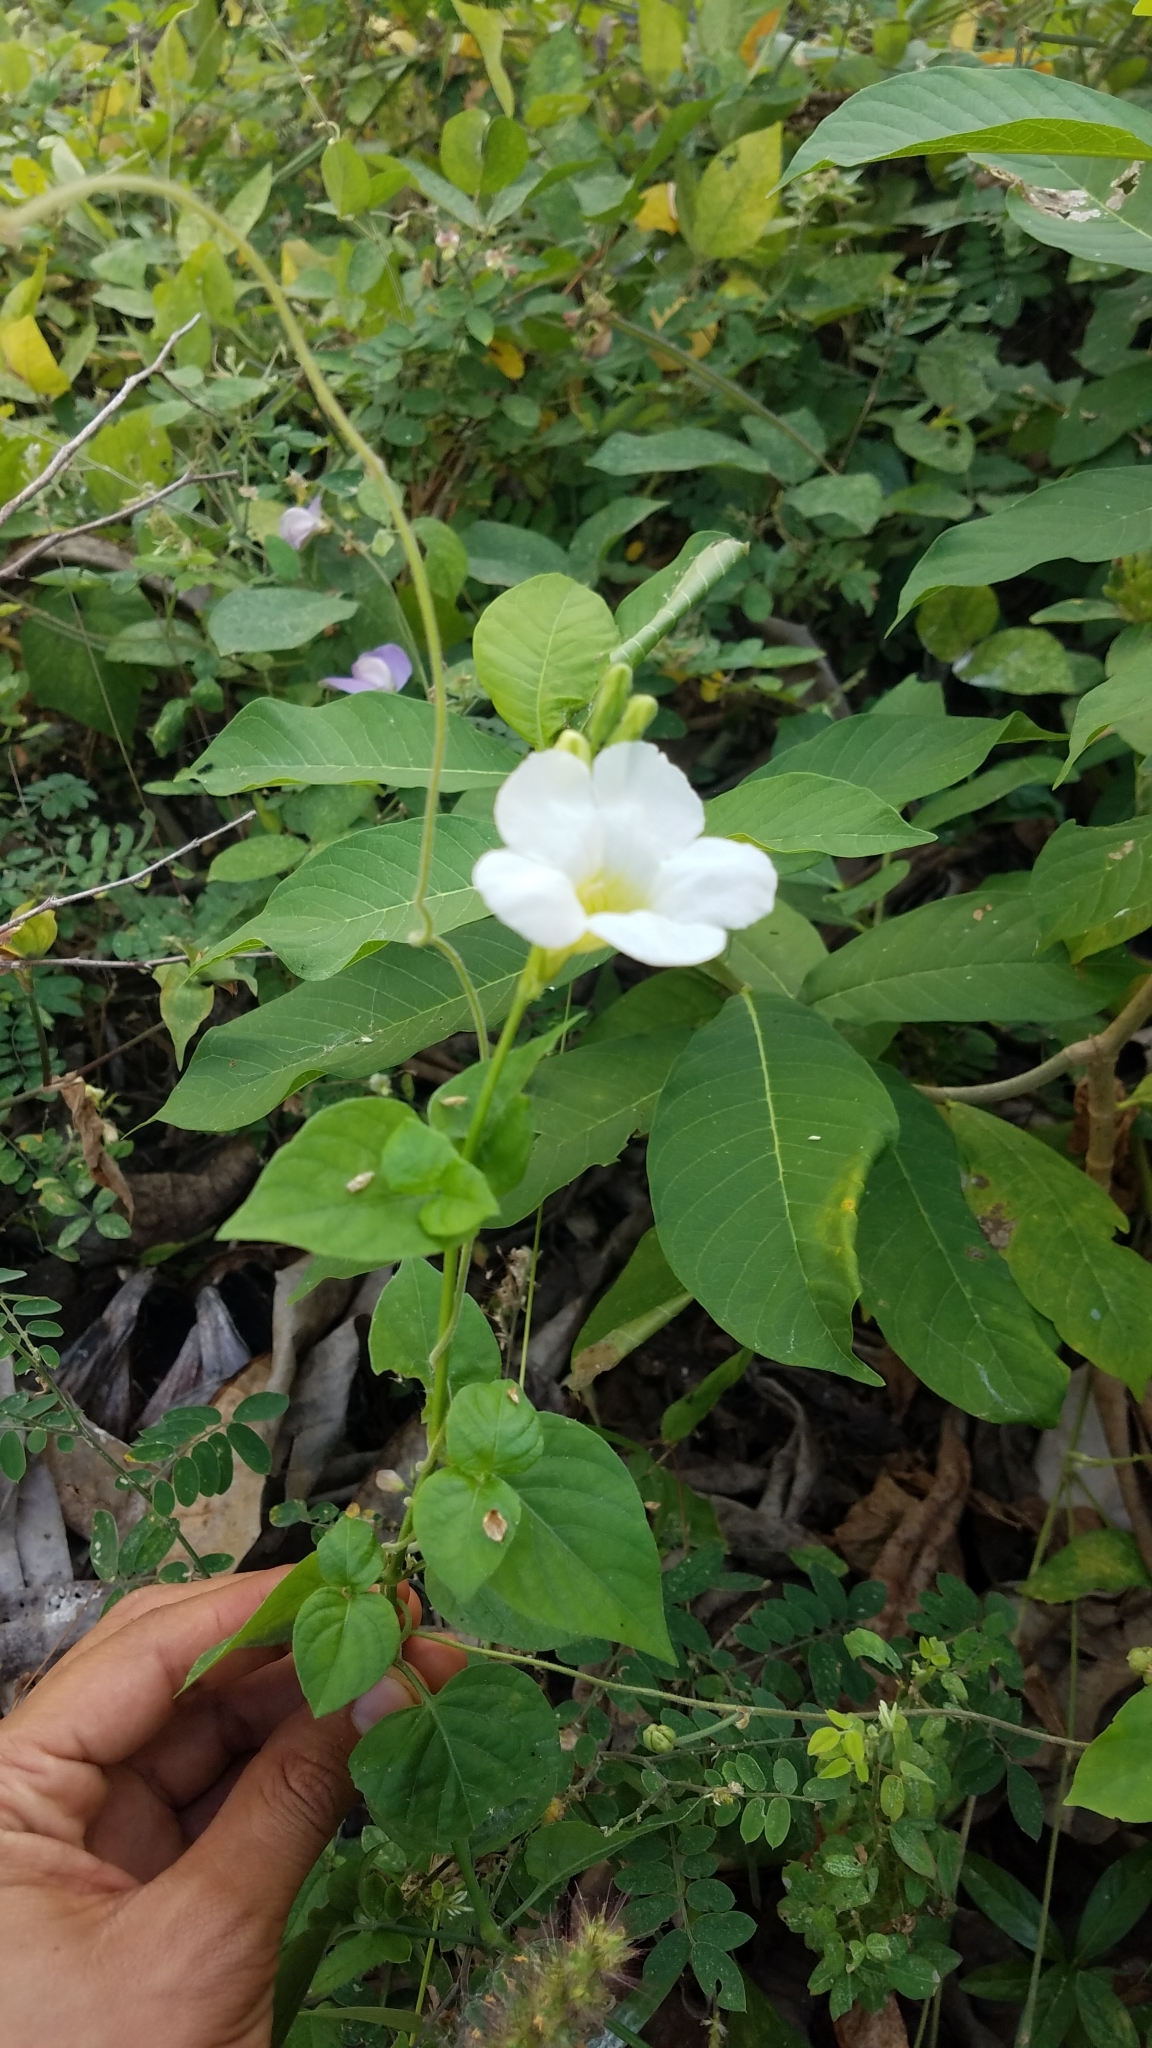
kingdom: Plantae
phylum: Tracheophyta
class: Magnoliopsida
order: Lamiales
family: Acanthaceae
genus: Asystasia
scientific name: Asystasia gangetica
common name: Chinese violet
